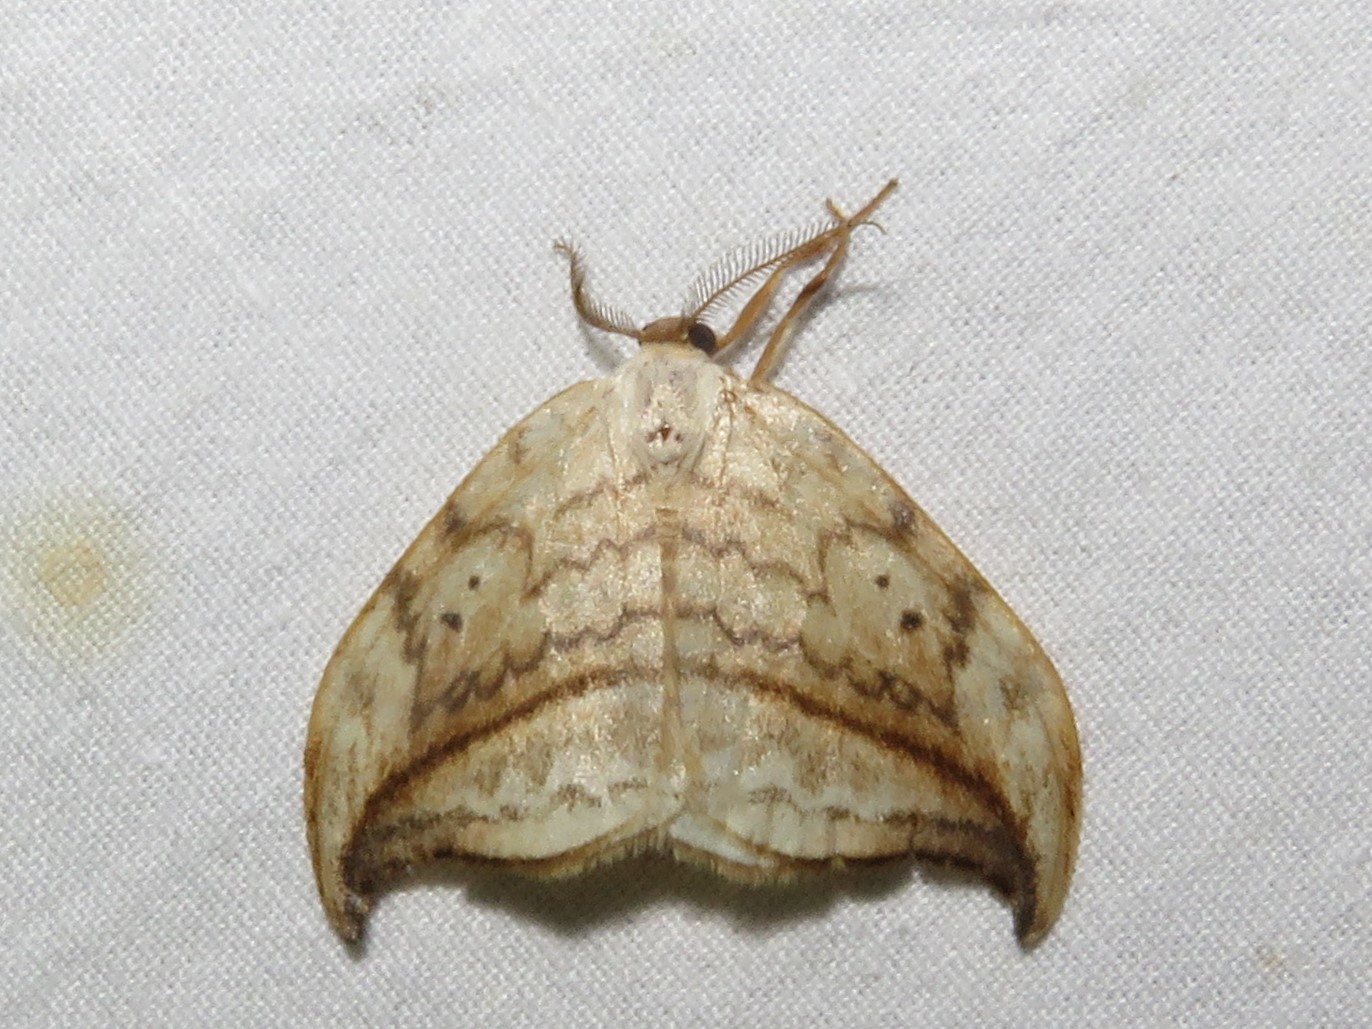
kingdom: Animalia
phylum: Arthropoda
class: Insecta
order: Lepidoptera
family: Drepanidae
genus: Drepana
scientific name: Drepana arcuata
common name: Arched hooktip moth
